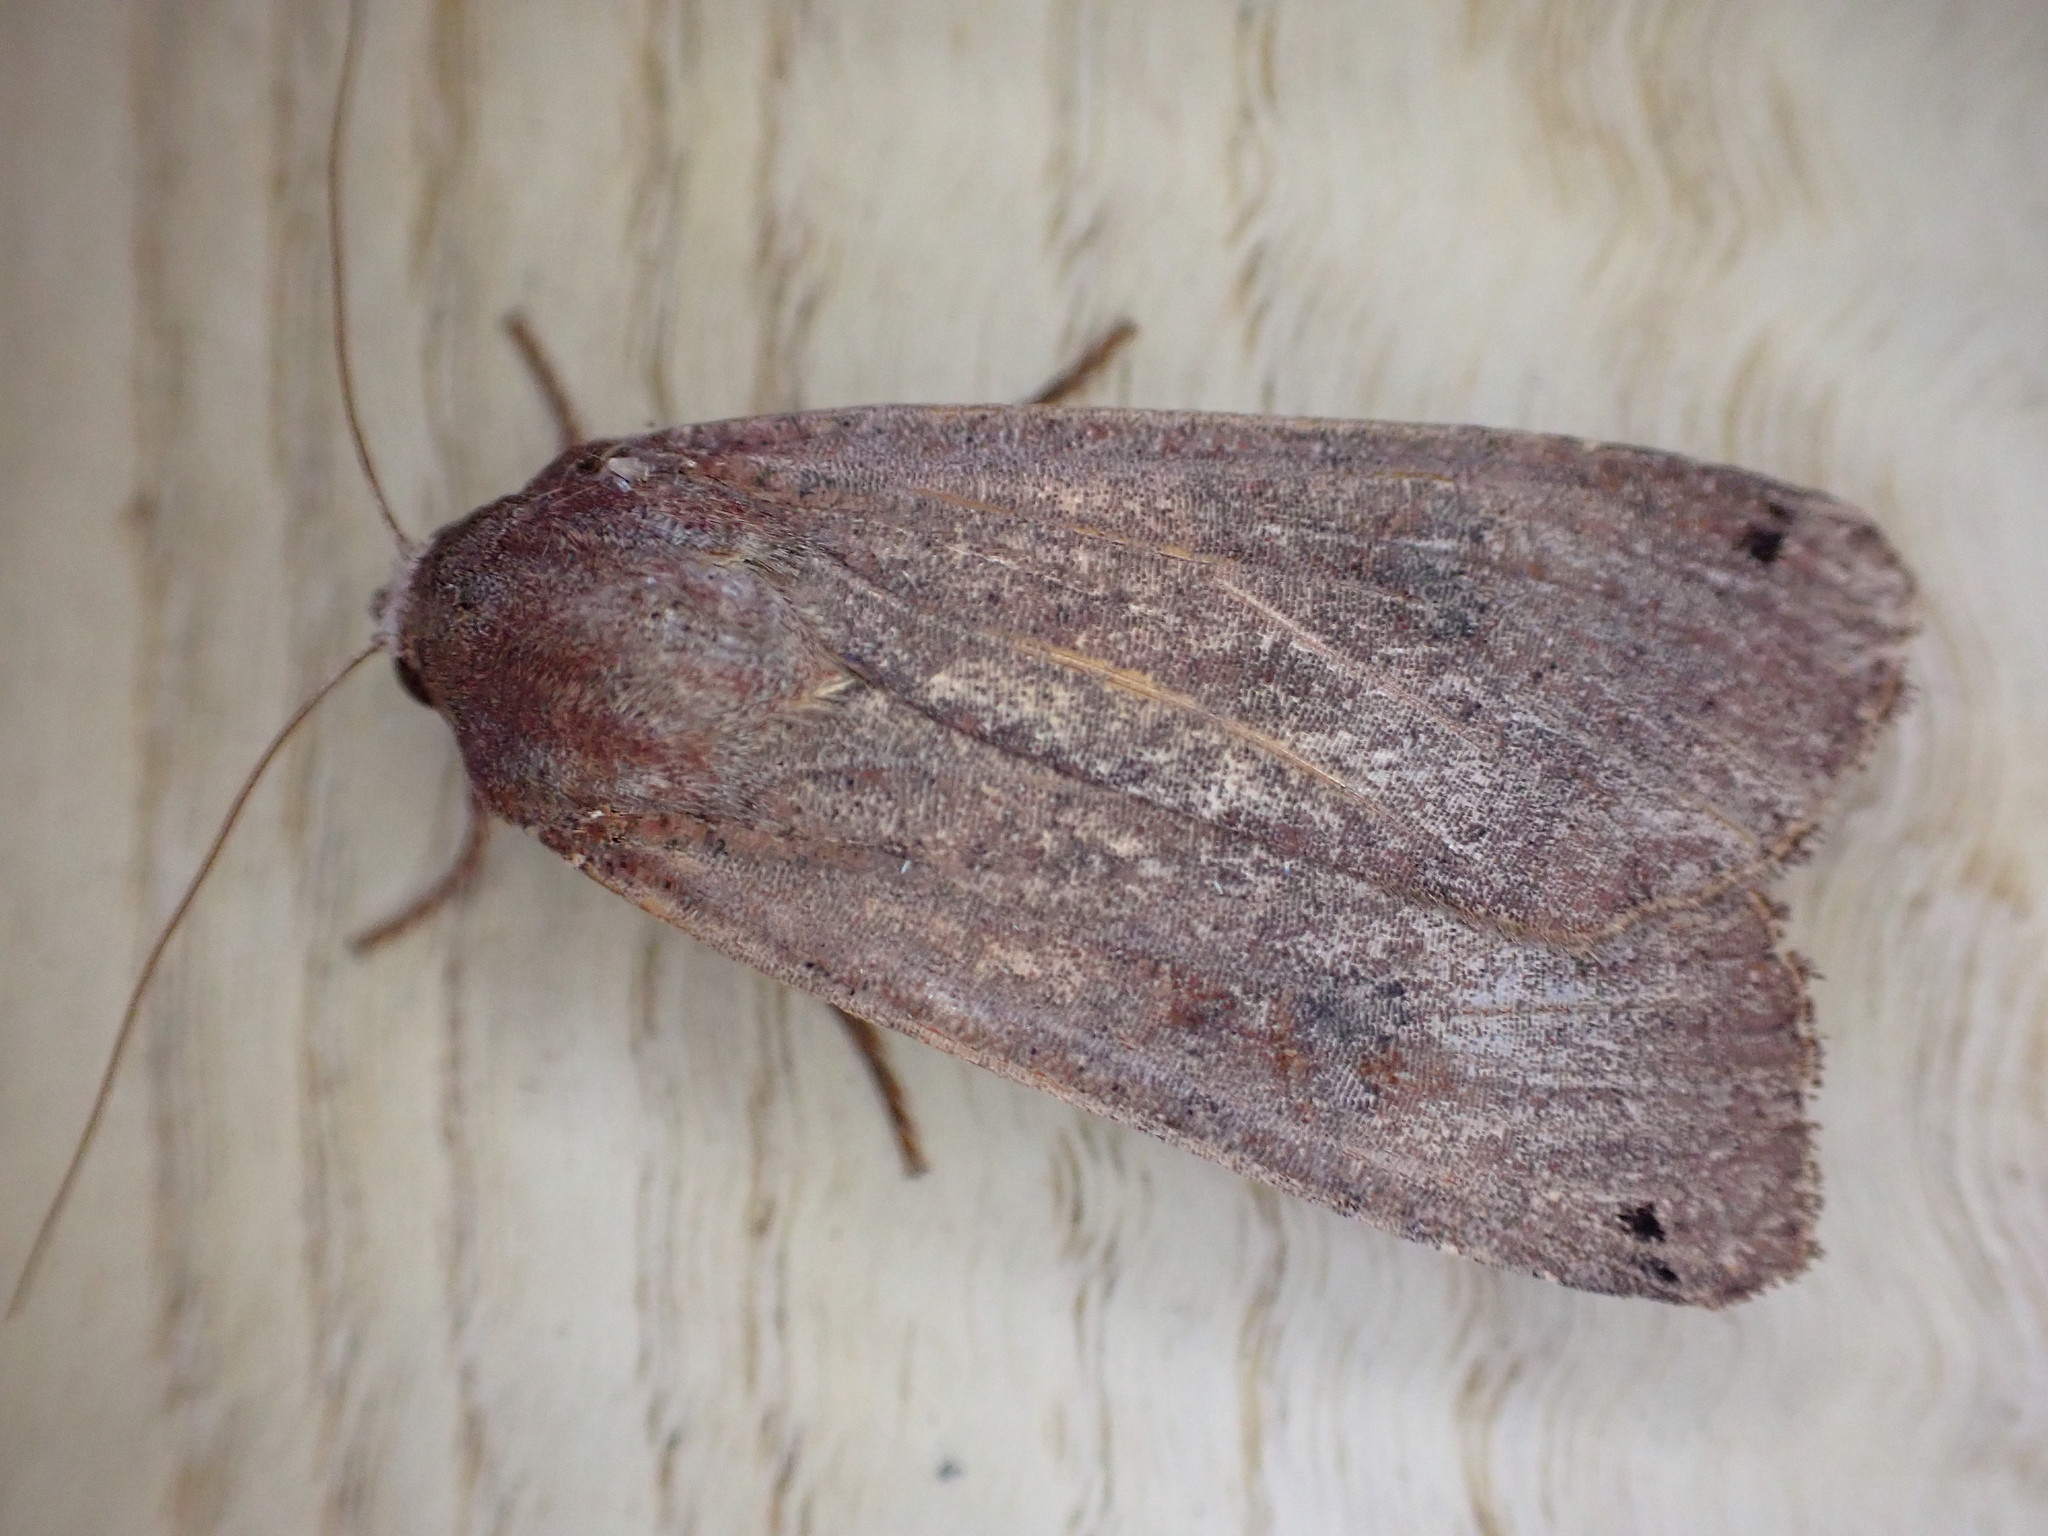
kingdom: Animalia
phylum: Arthropoda
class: Insecta
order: Lepidoptera
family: Noctuidae
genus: Noctua
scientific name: Noctua pronuba
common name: Large yellow underwing
